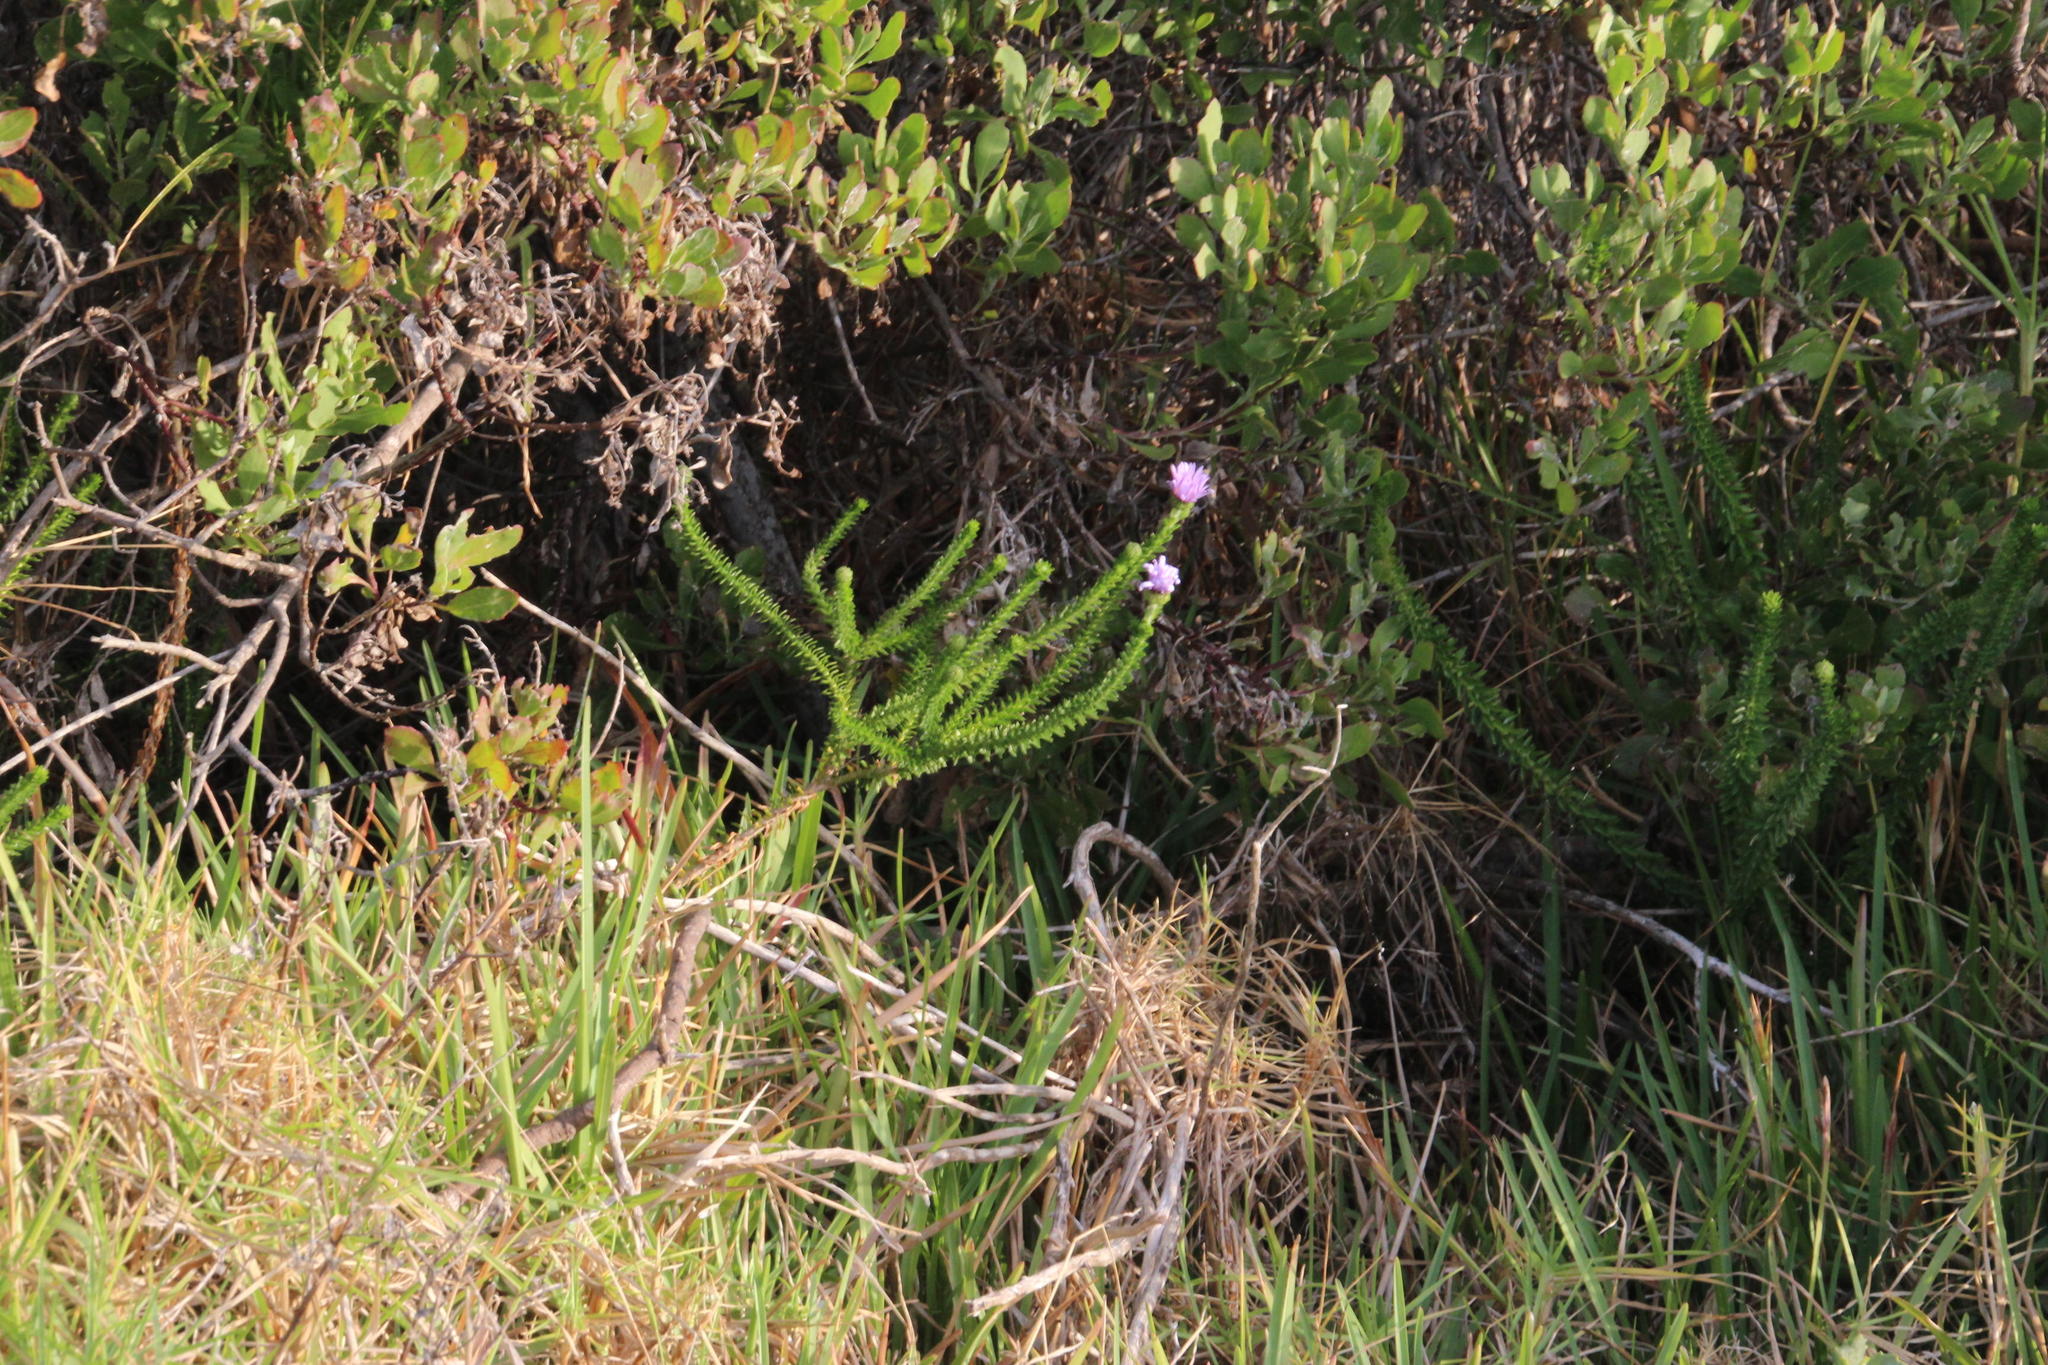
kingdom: Plantae
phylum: Tracheophyta
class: Magnoliopsida
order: Asterales
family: Asteraceae
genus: Felicia
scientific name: Felicia echinata
